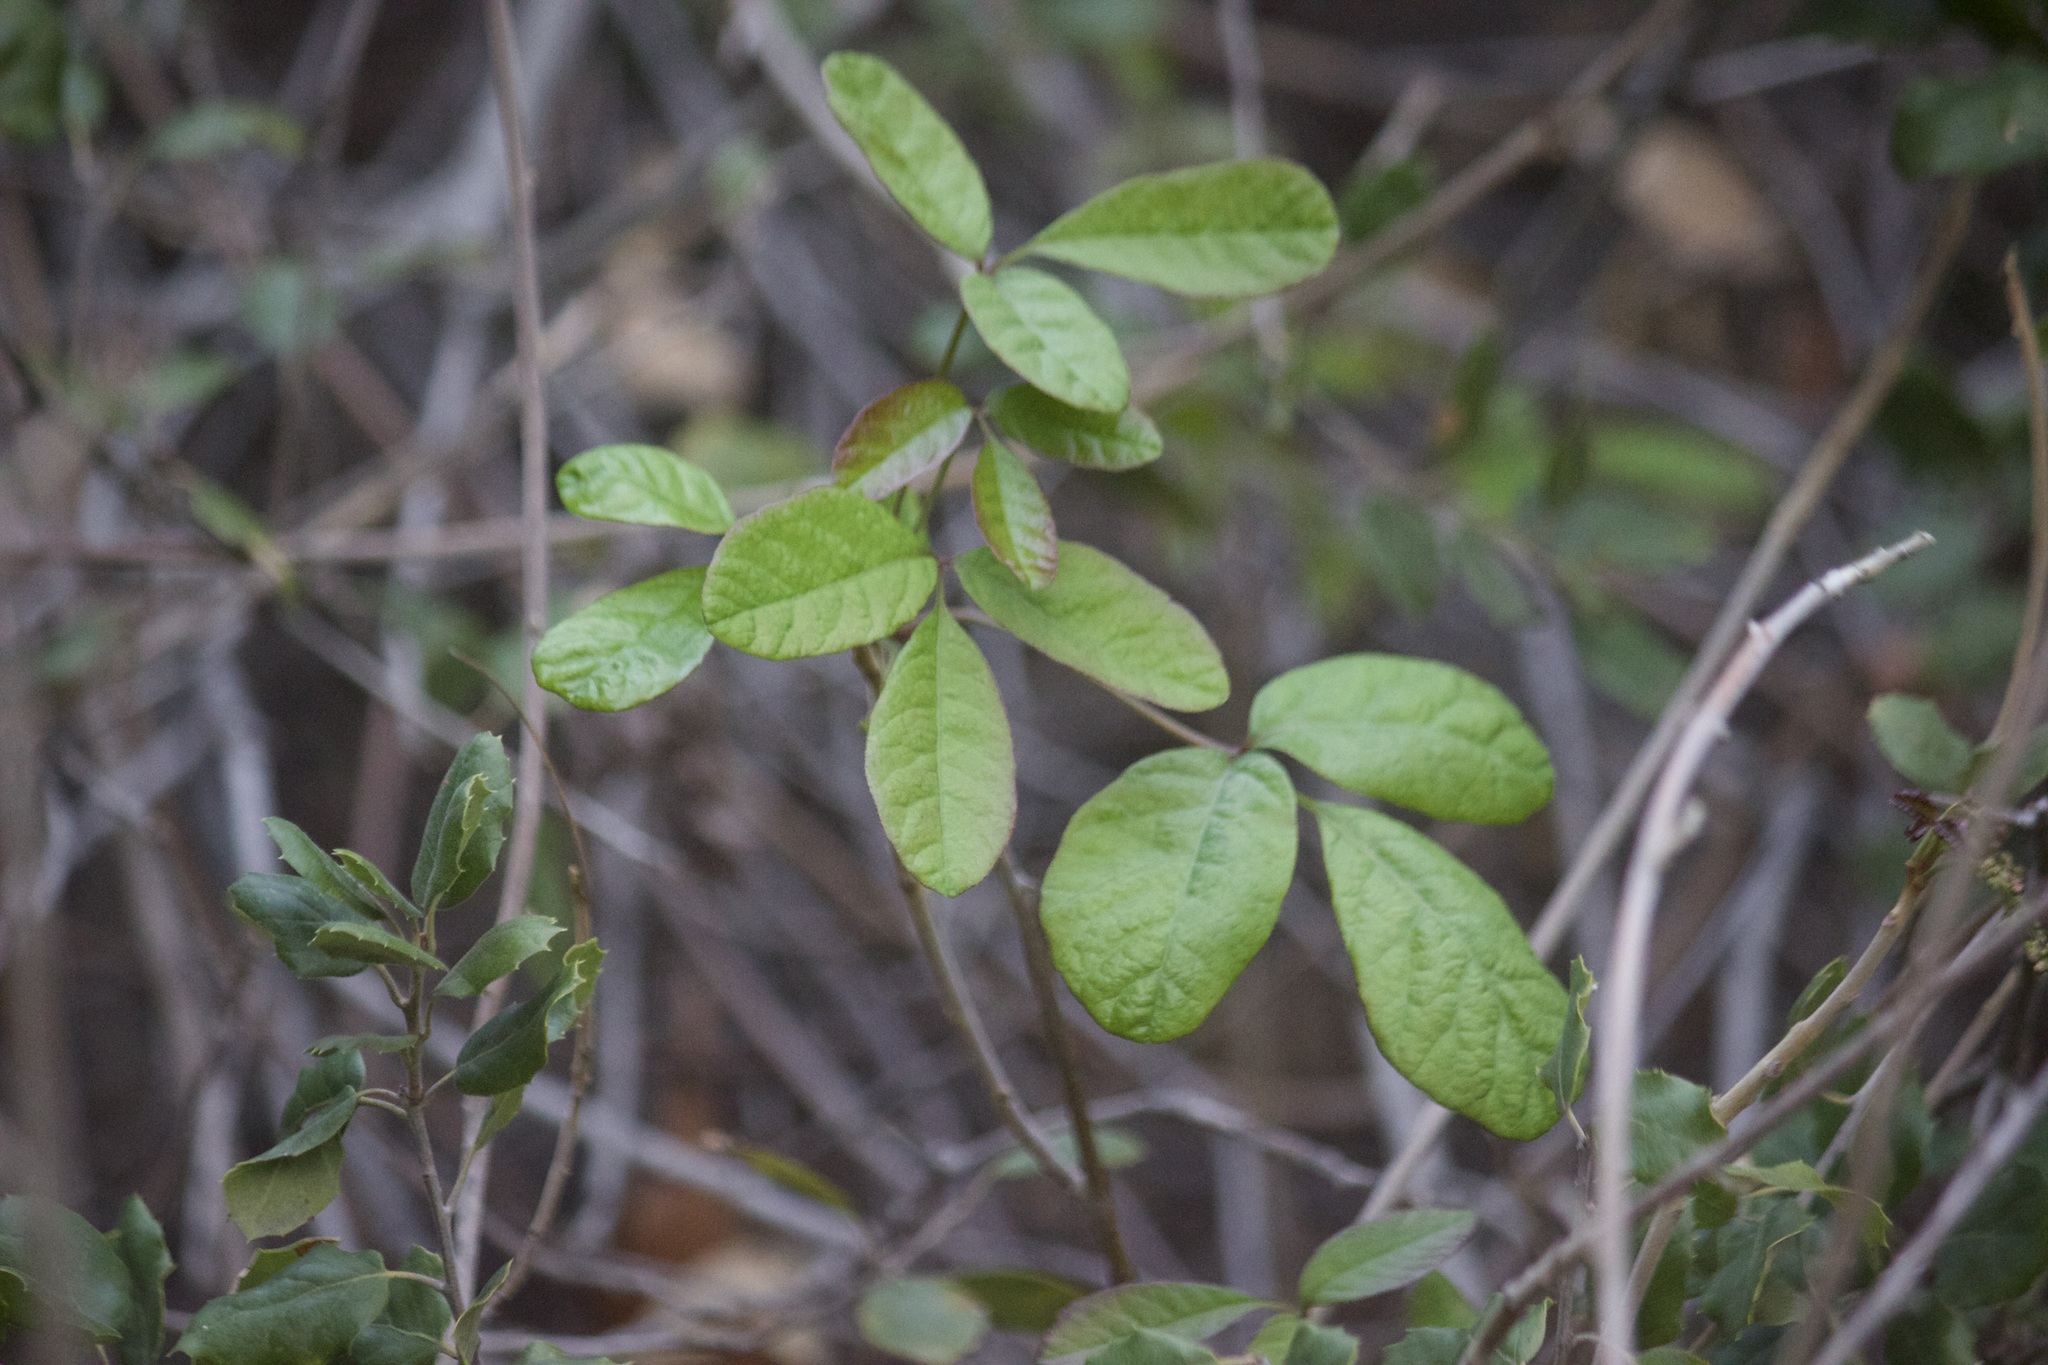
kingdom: Plantae
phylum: Tracheophyta
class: Magnoliopsida
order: Sapindales
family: Anacardiaceae
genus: Toxicodendron
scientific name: Toxicodendron diversilobum
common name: Pacific poison-oak
